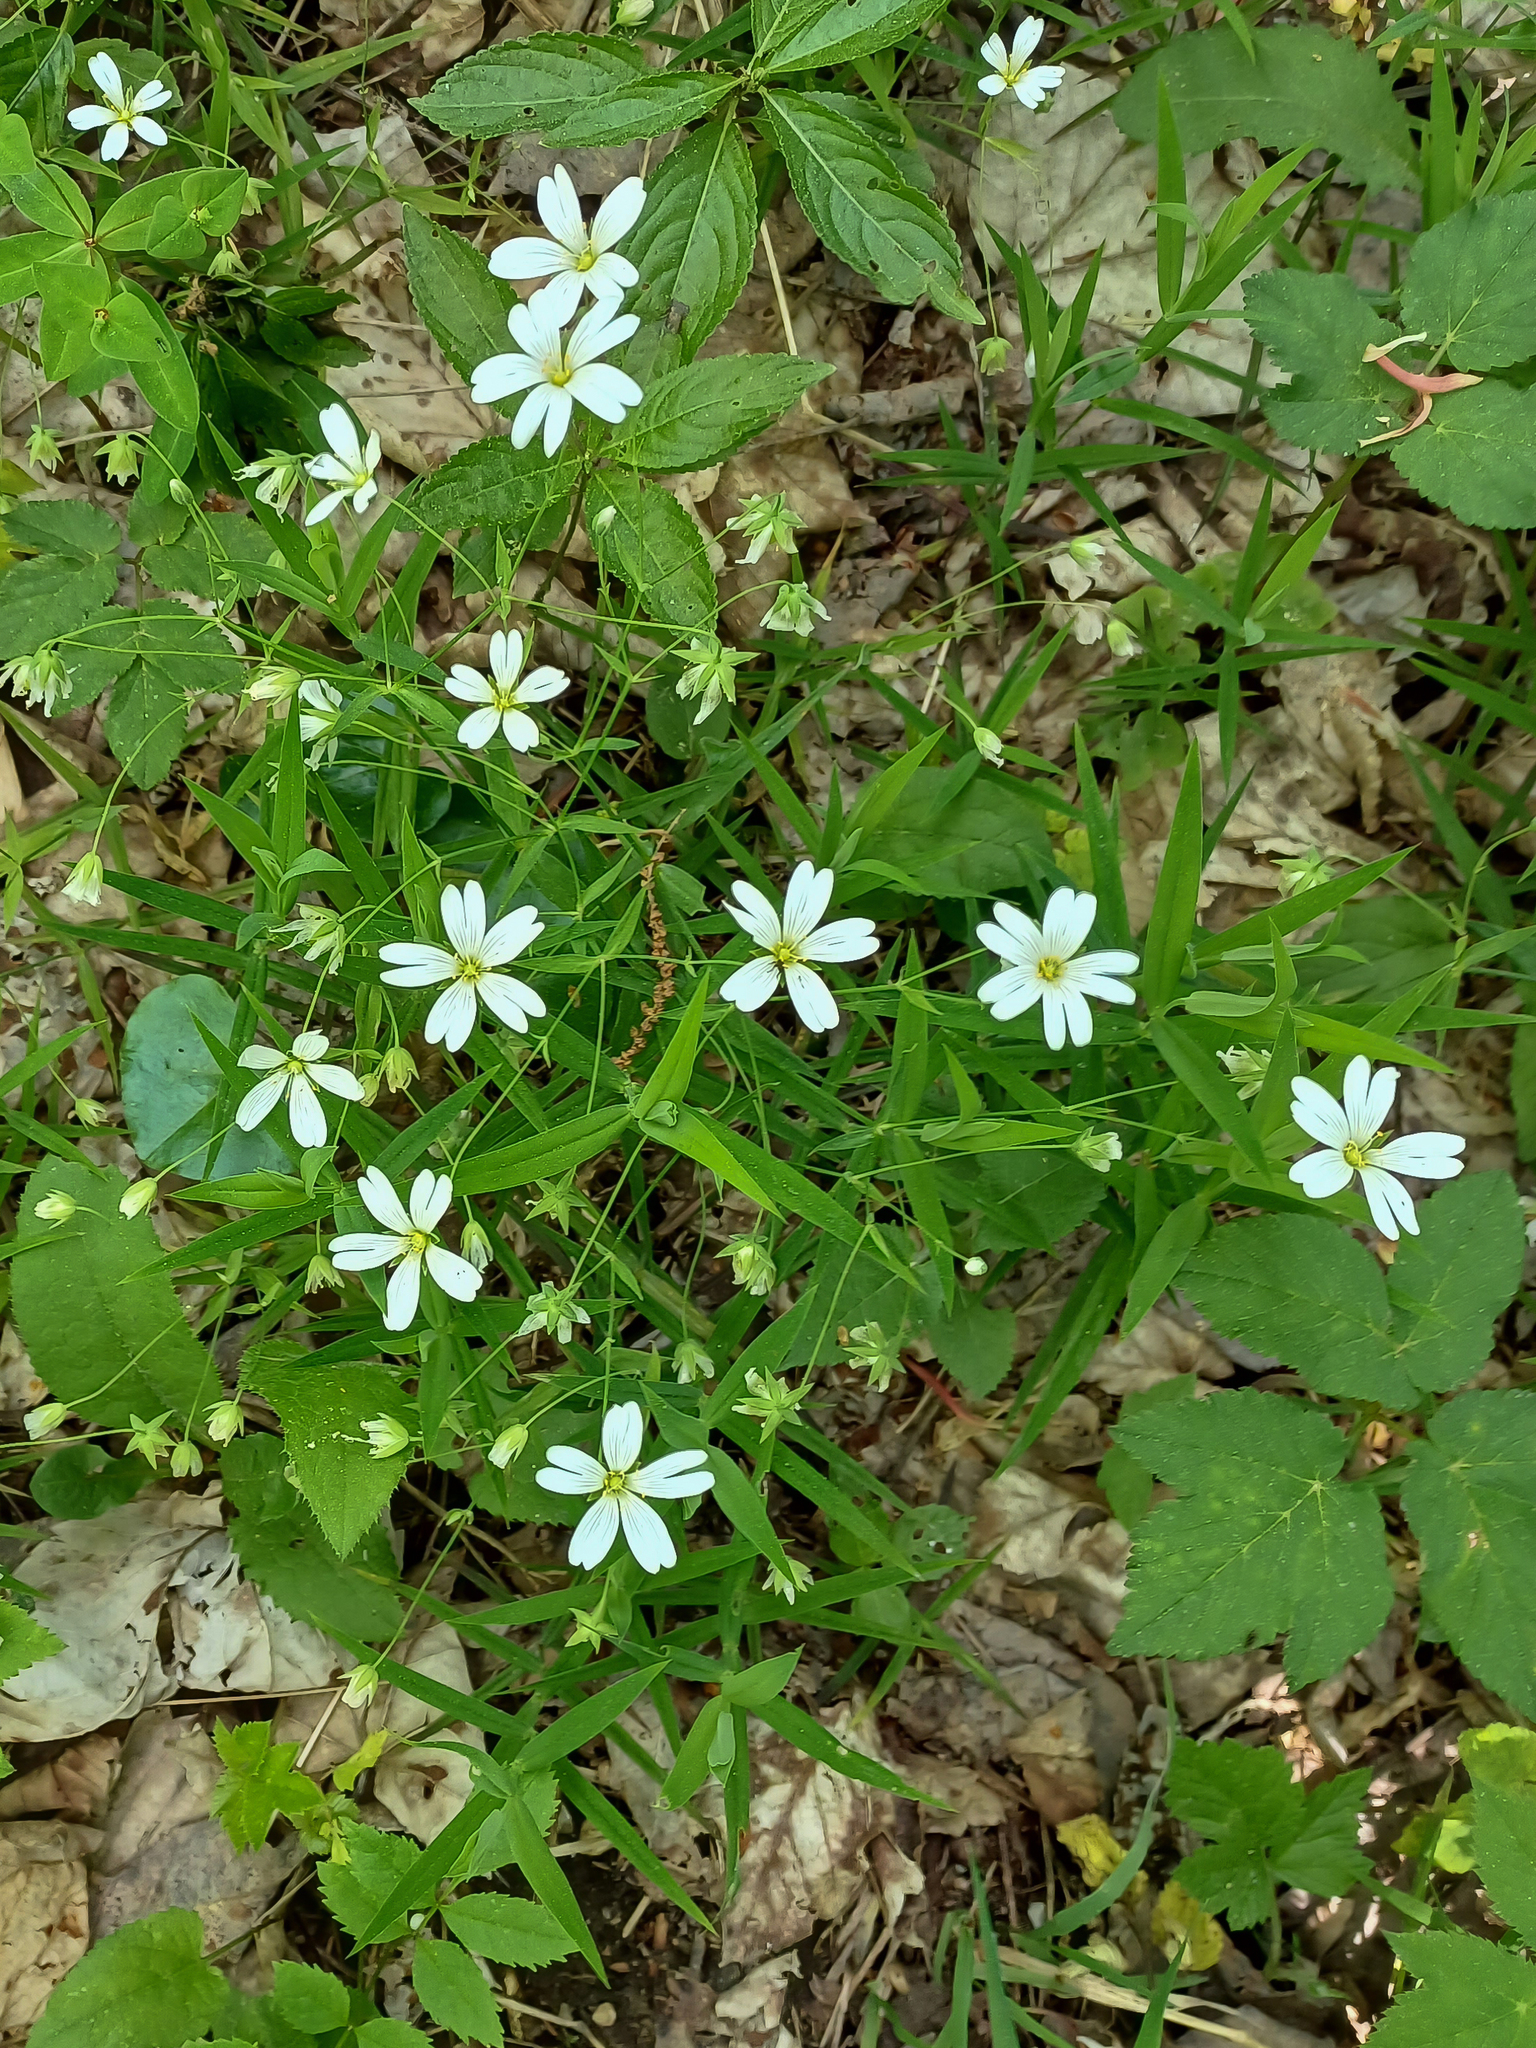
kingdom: Plantae
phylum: Tracheophyta
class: Magnoliopsida
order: Caryophyllales
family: Caryophyllaceae
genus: Rabelera
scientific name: Rabelera holostea
